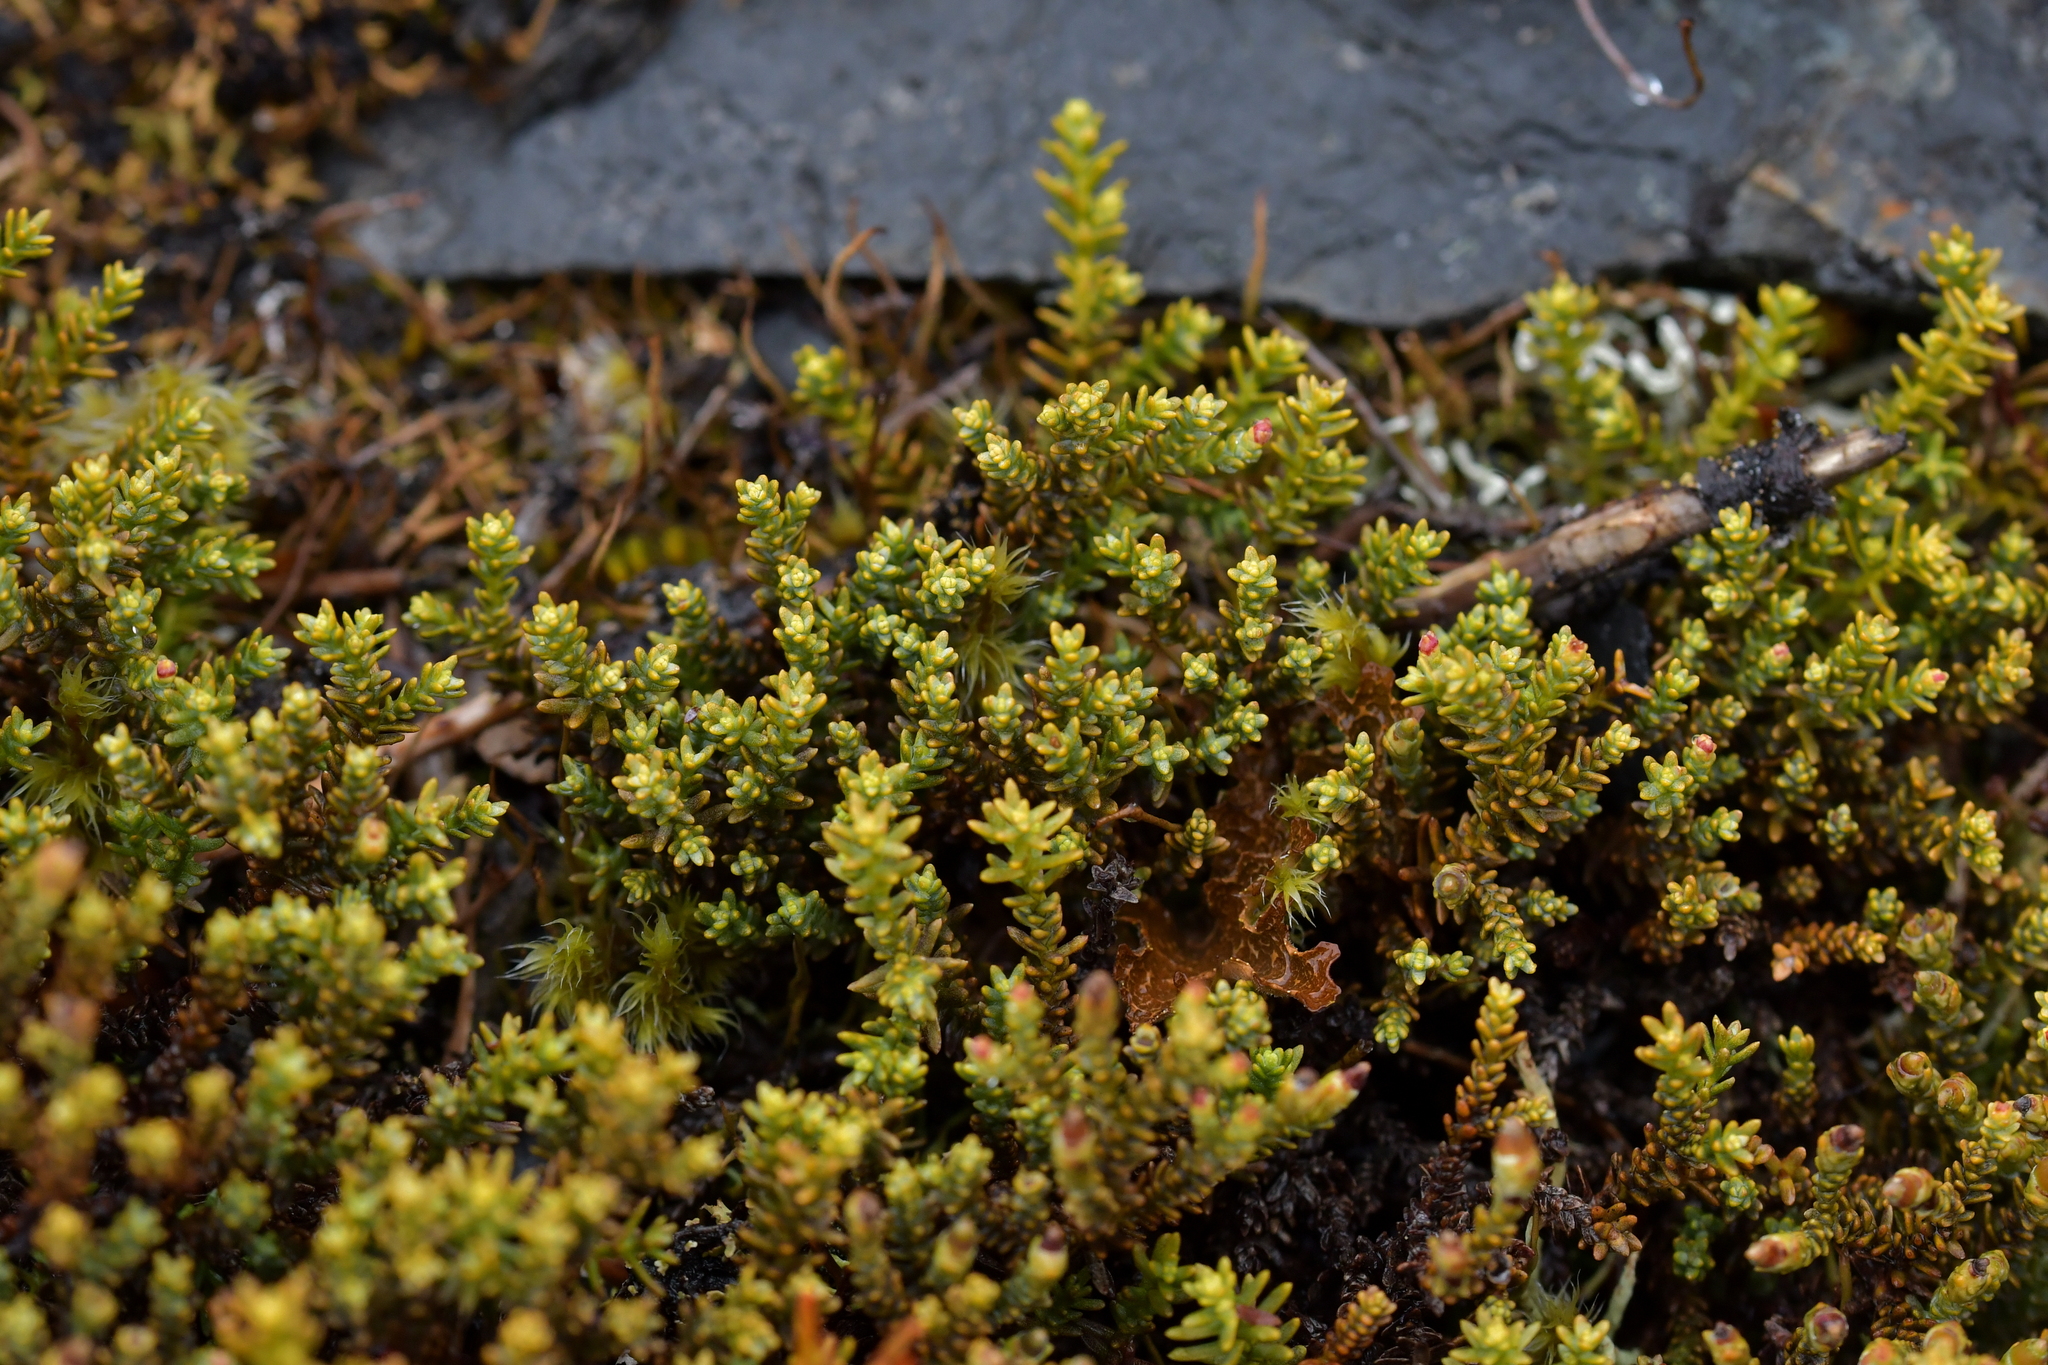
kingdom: Plantae
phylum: Tracheophyta
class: Pinopsida
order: Pinales
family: Podocarpaceae
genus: Lepidothamnus
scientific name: Lepidothamnus laxifolius
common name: Pygmy pine
